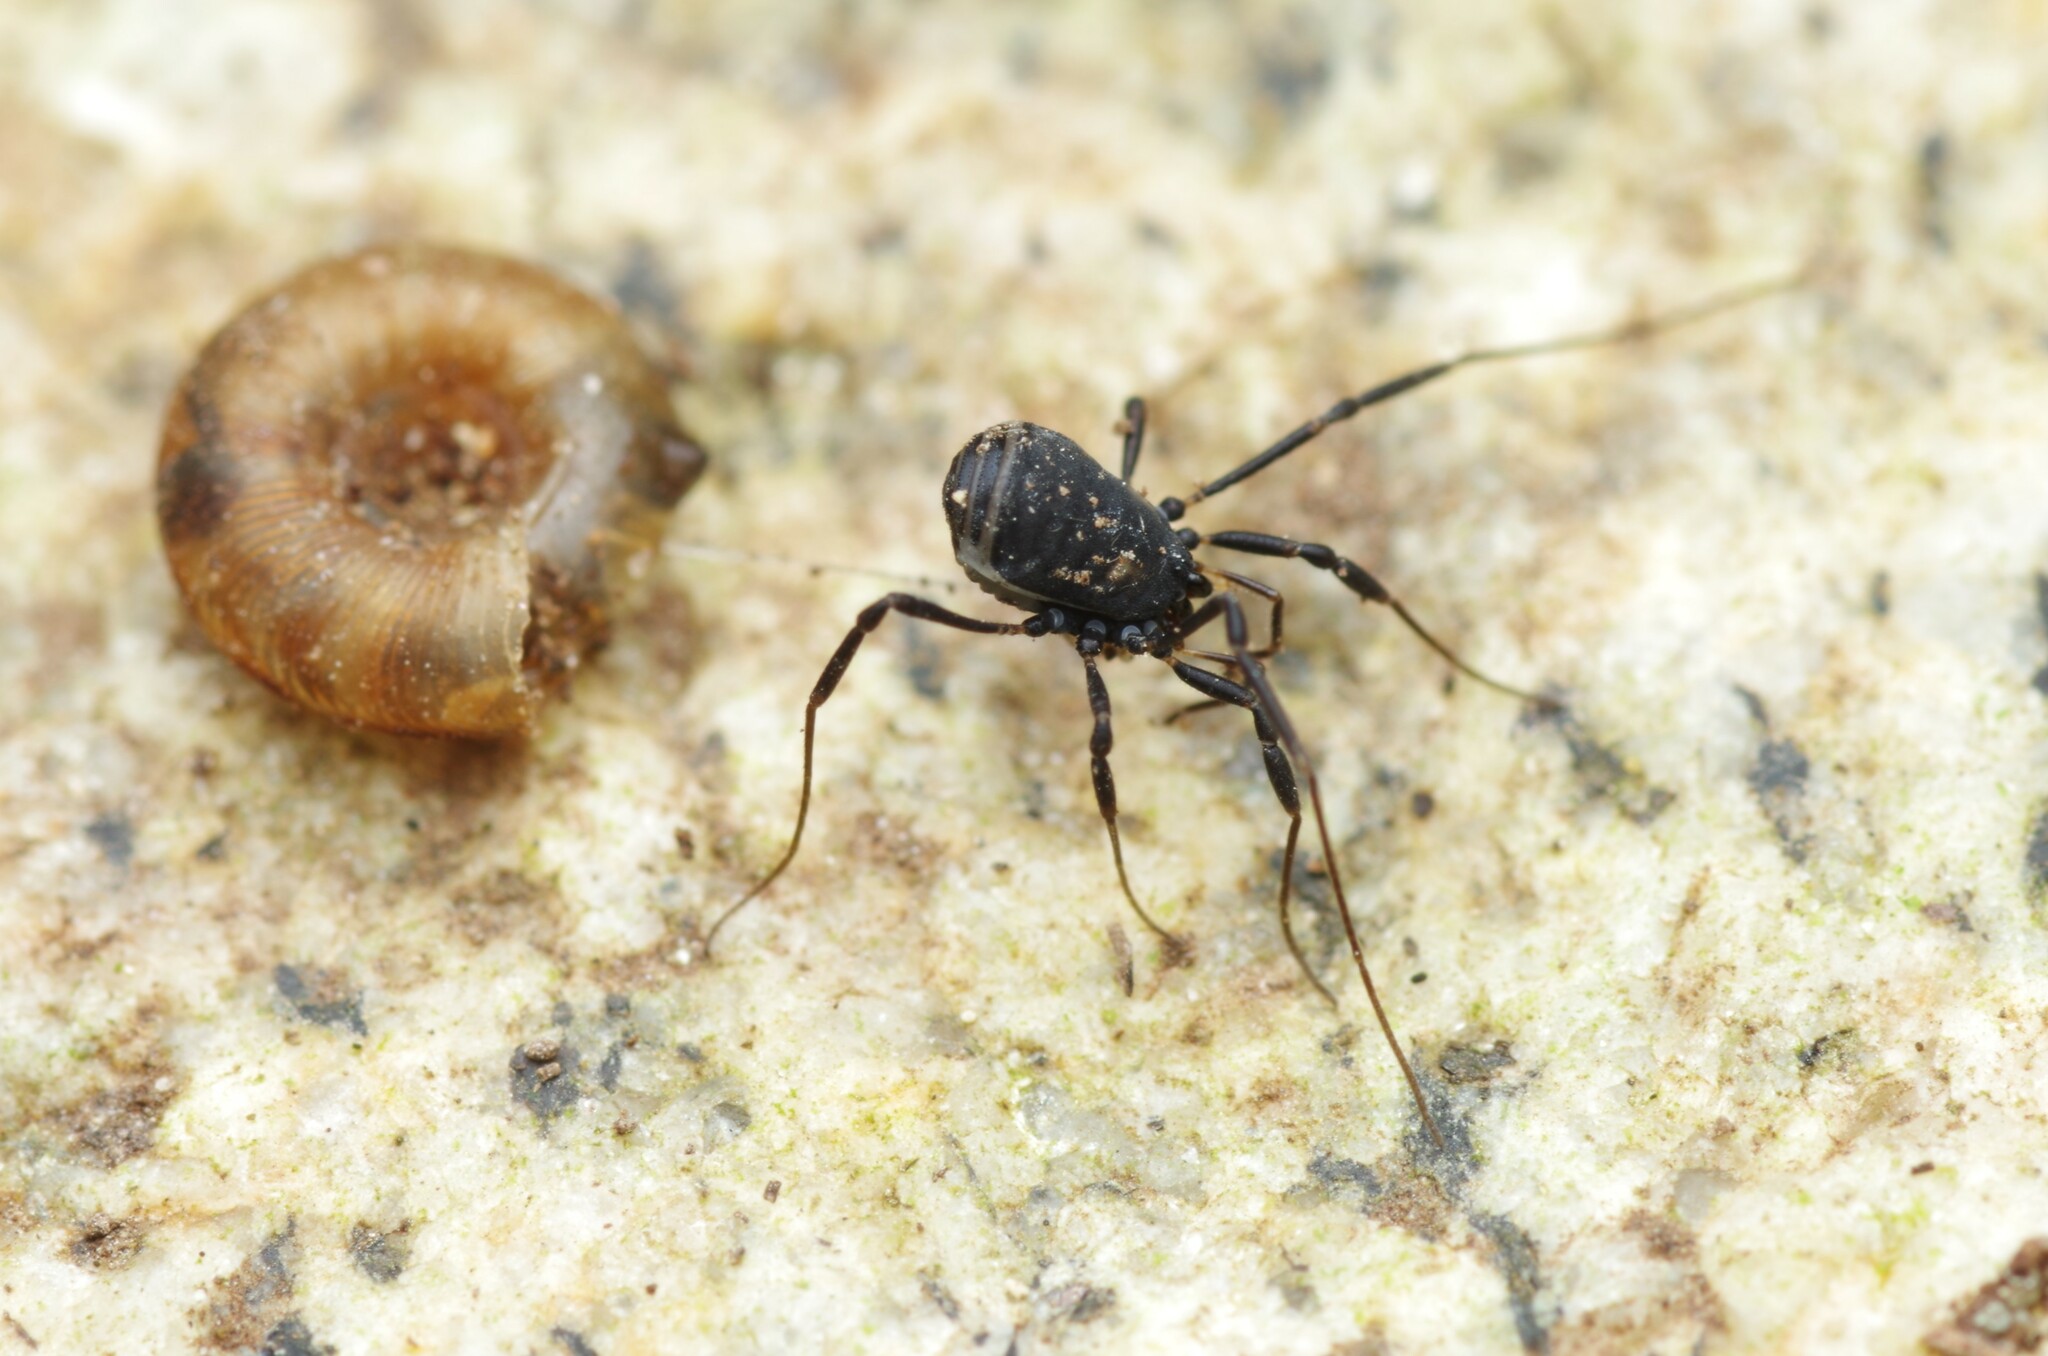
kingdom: Animalia
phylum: Arthropoda
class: Arachnida
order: Opiliones
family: Nemastomatidae
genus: Nemastoma
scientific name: Nemastoma bimaculatum
